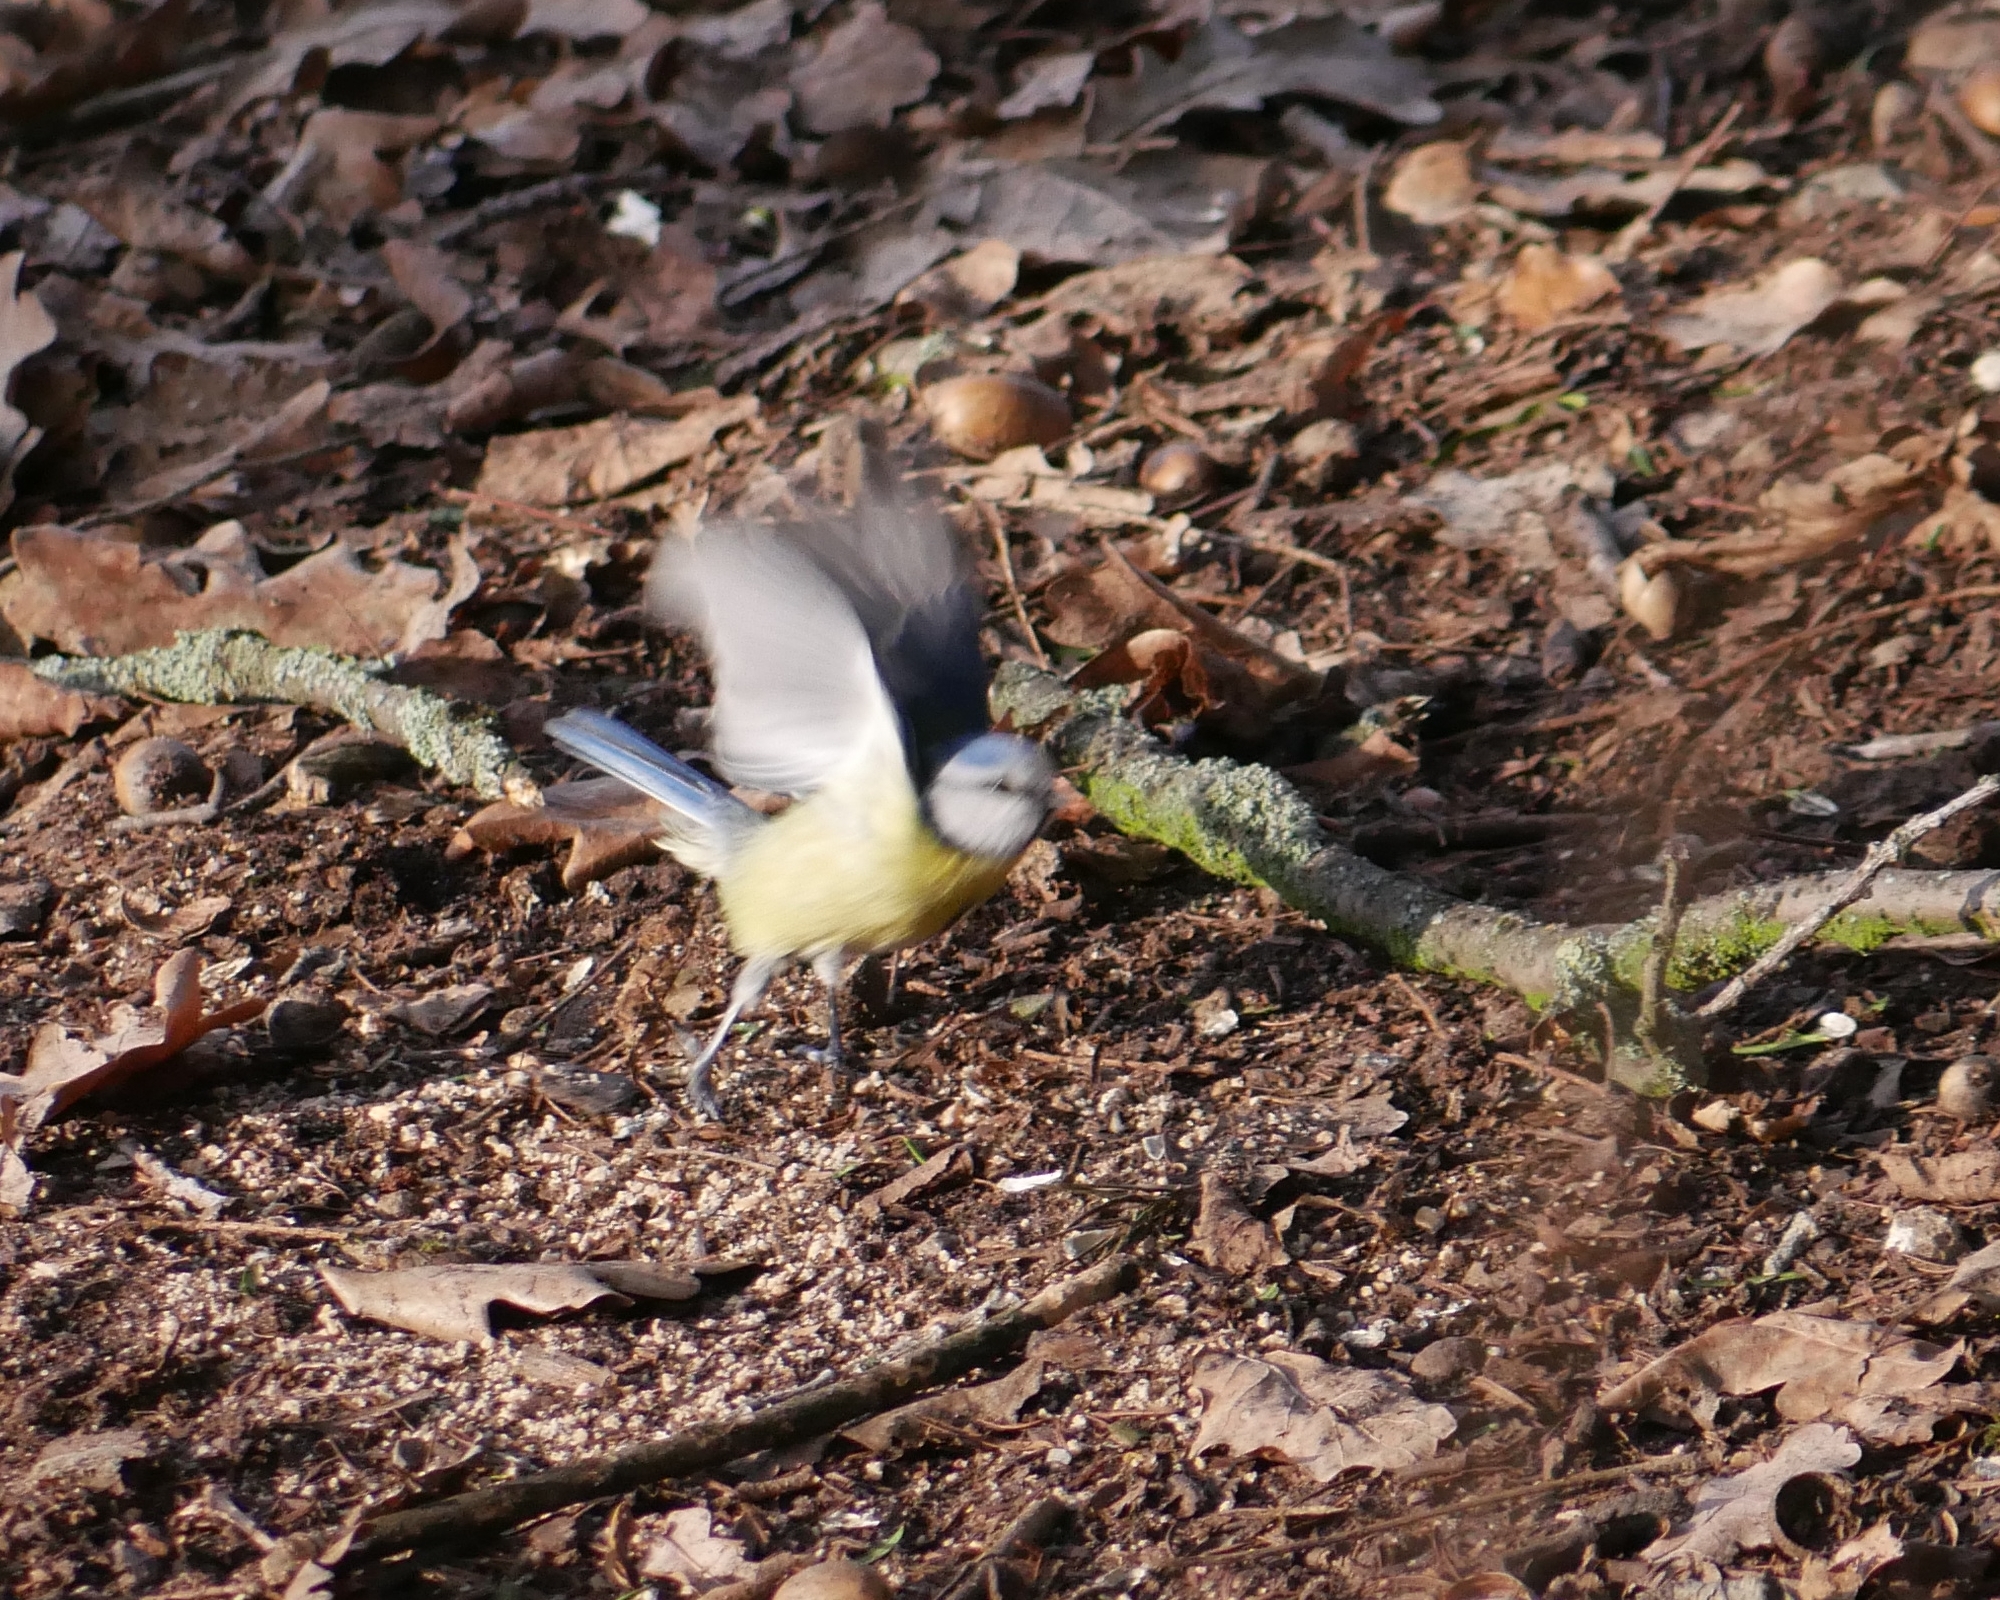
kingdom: Animalia
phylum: Chordata
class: Aves
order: Passeriformes
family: Paridae
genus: Cyanistes
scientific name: Cyanistes caeruleus
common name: Eurasian blue tit
